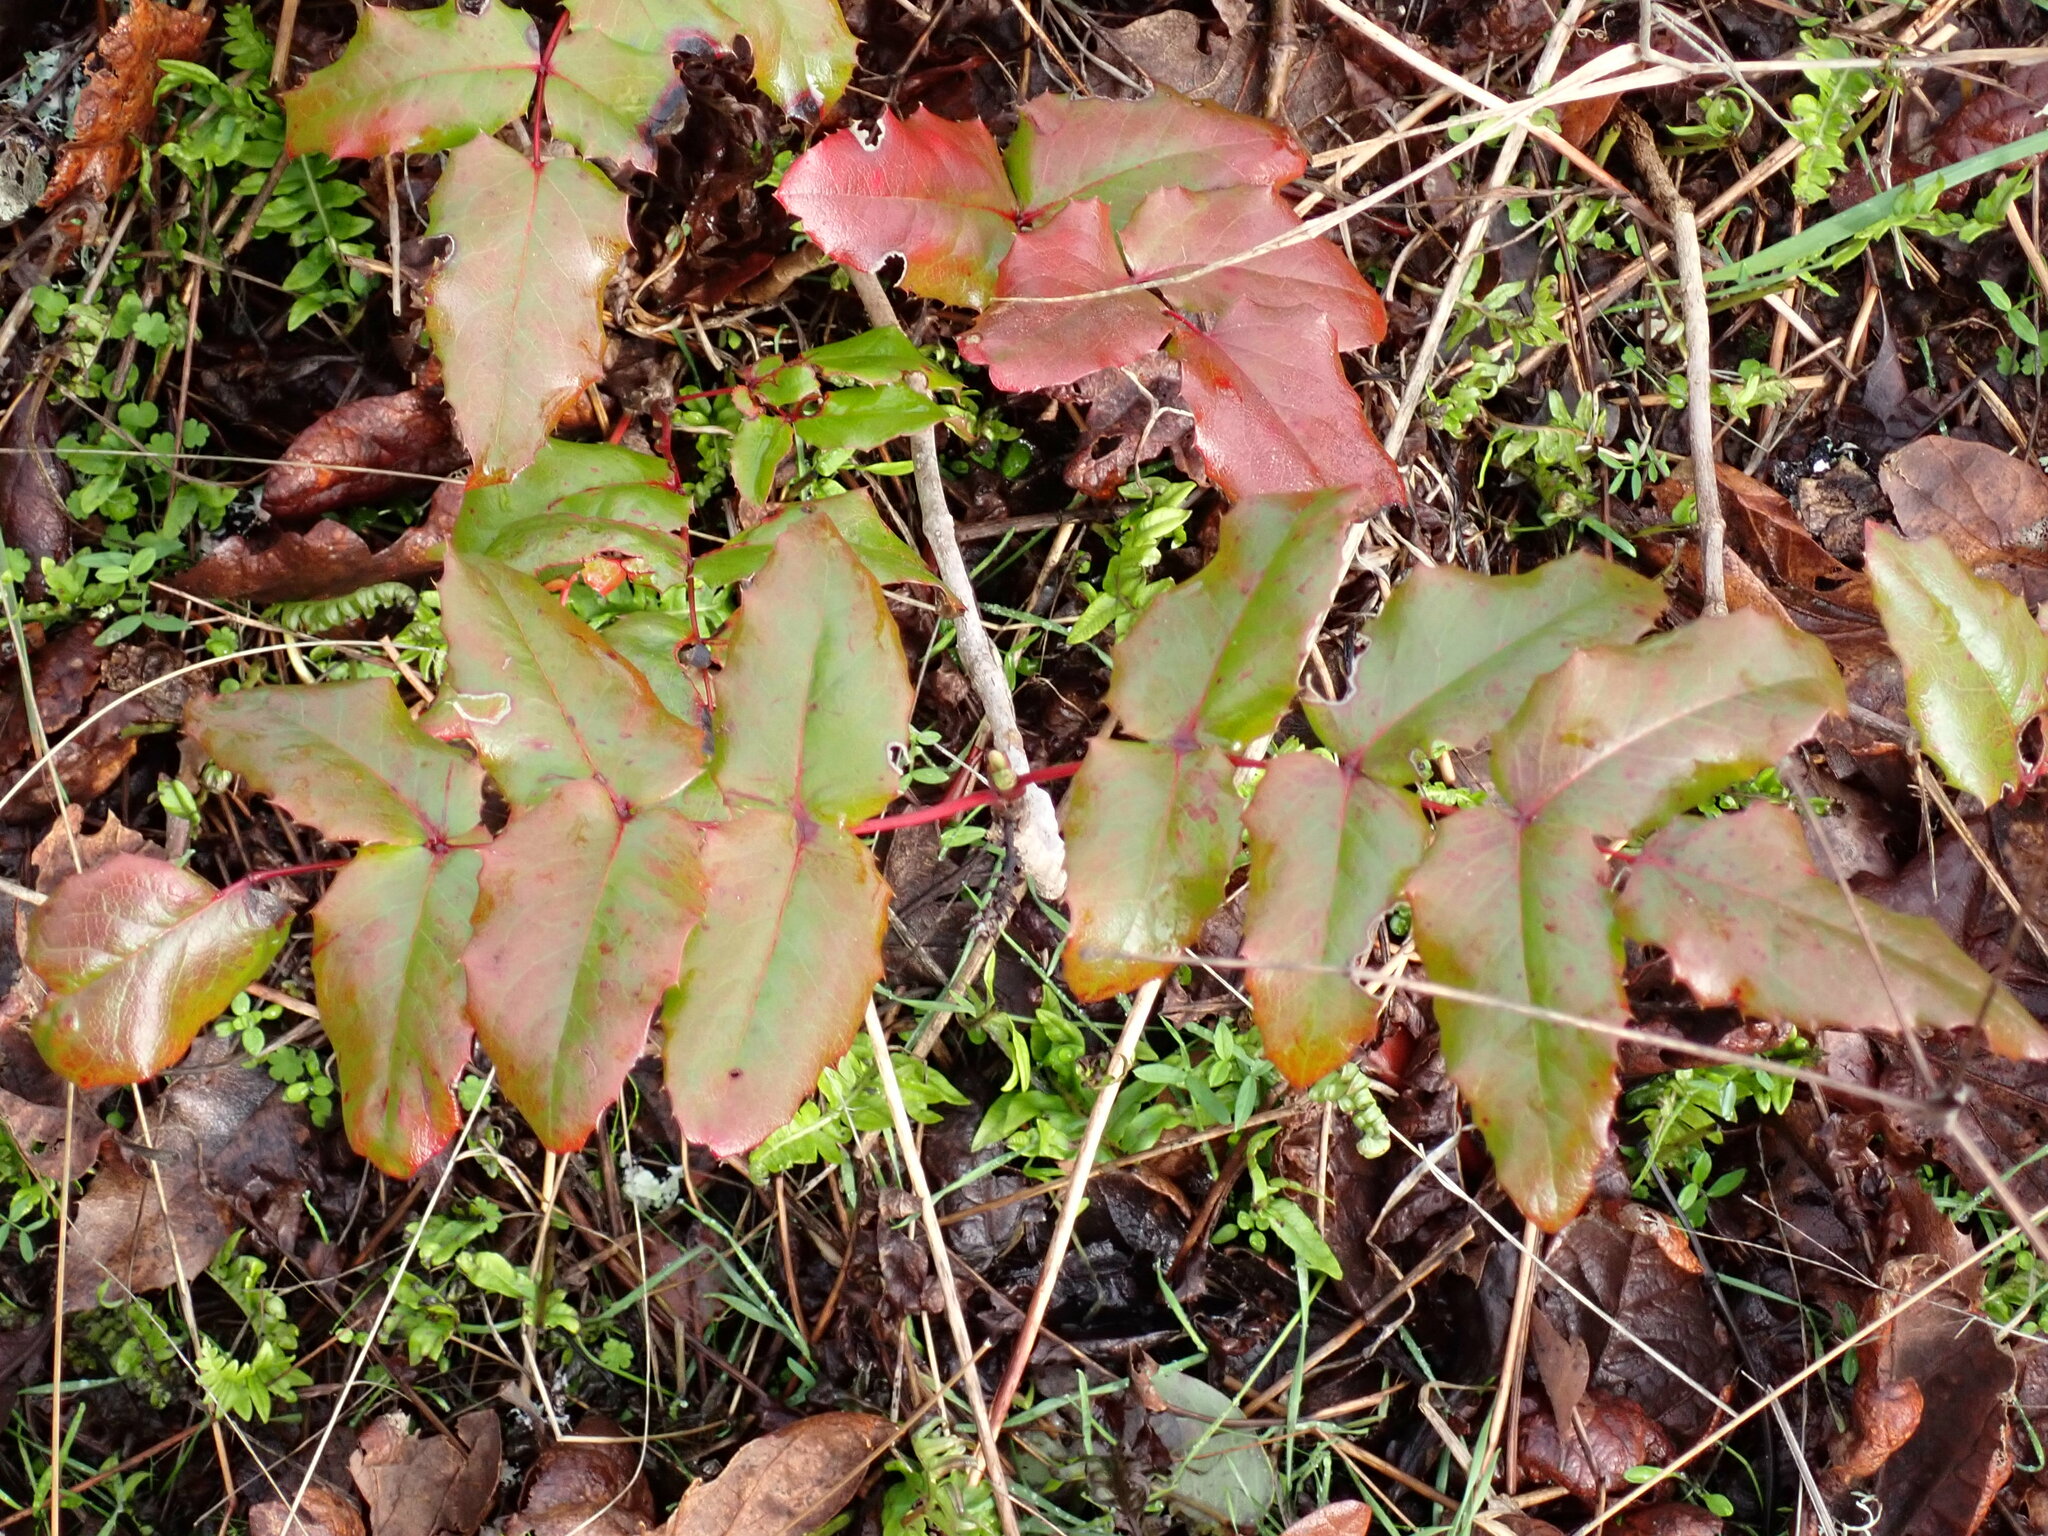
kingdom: Plantae
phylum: Tracheophyta
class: Magnoliopsida
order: Ranunculales
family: Berberidaceae
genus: Mahonia
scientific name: Mahonia aquifolium
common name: Oregon-grape
